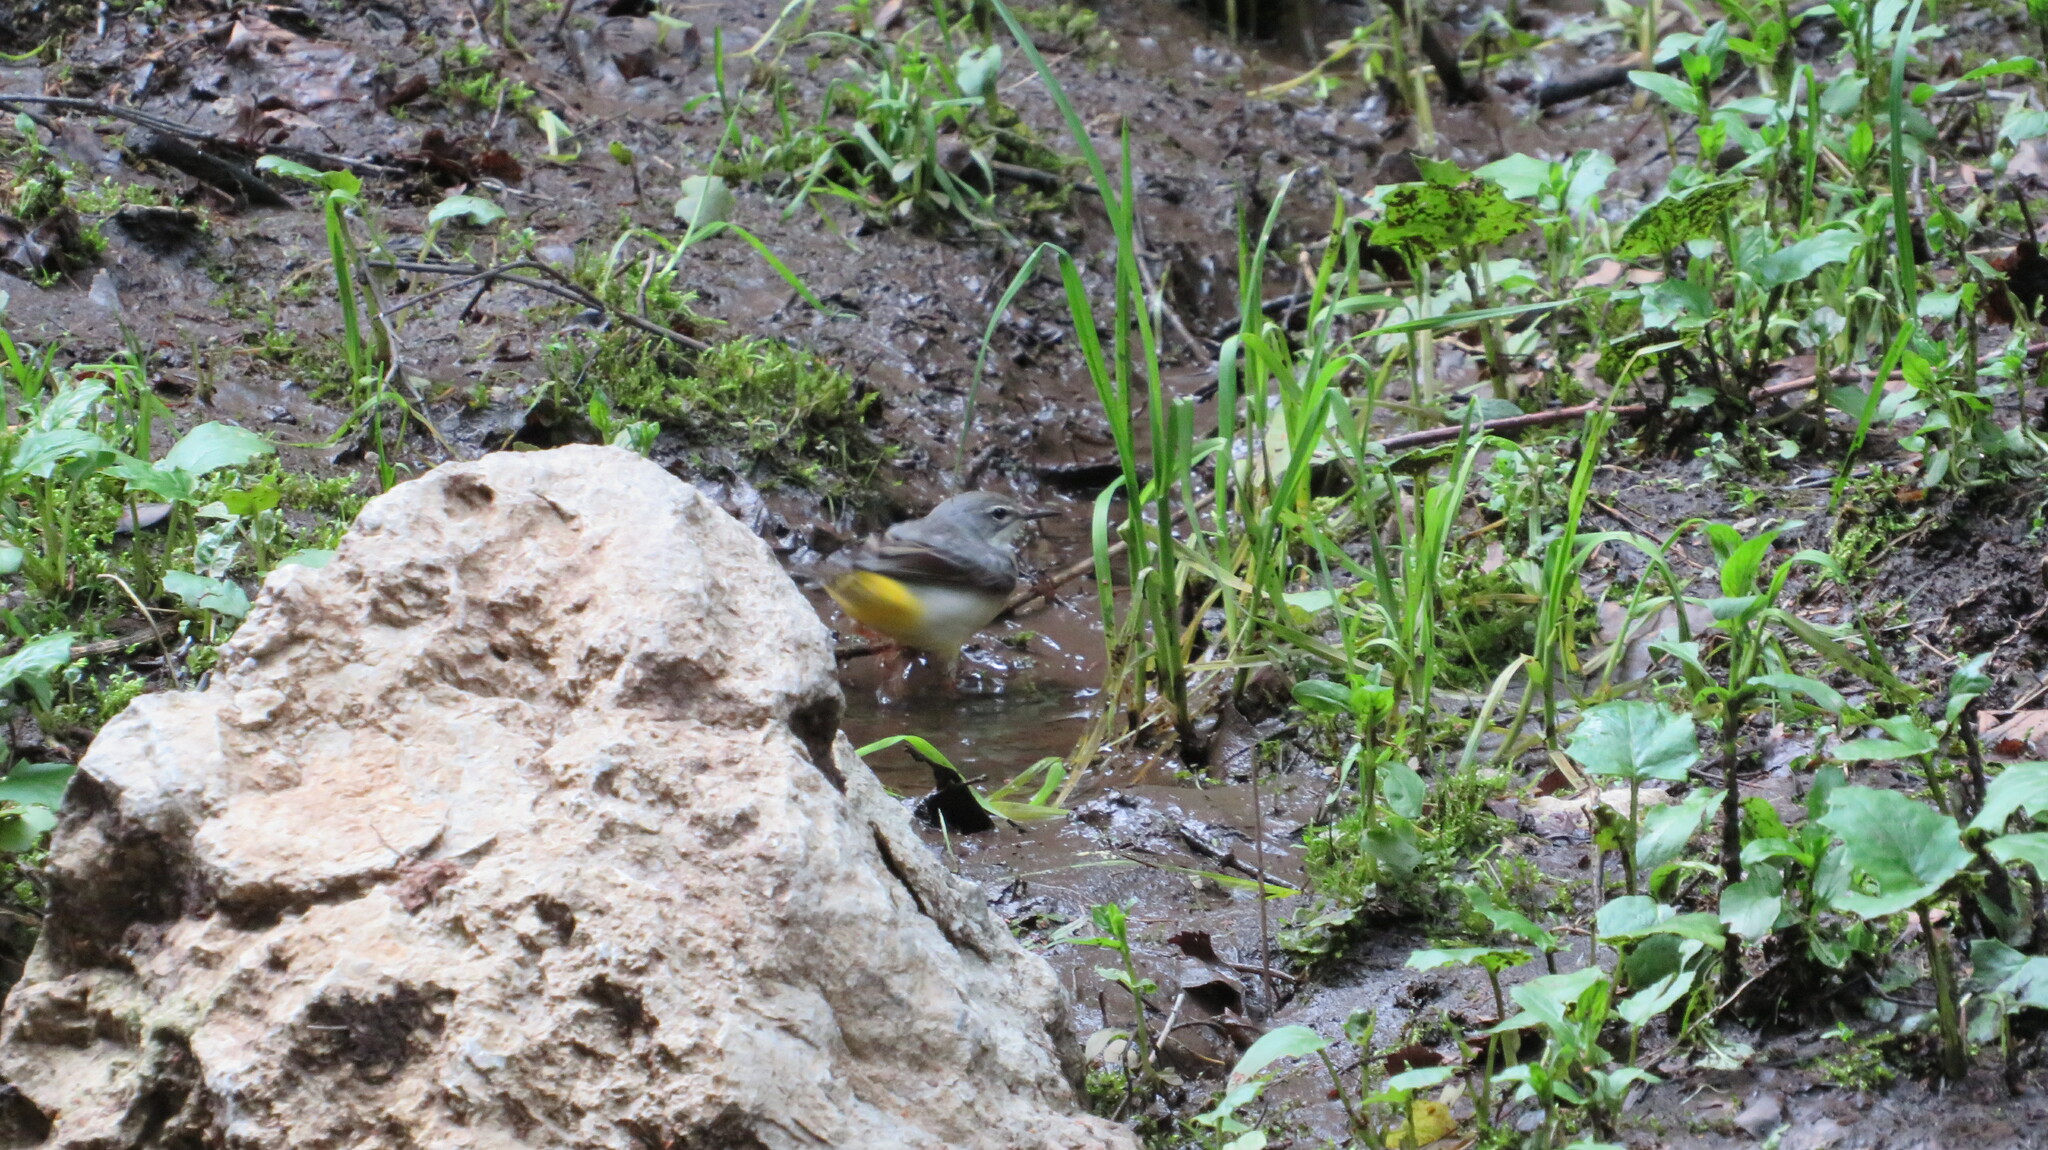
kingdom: Animalia
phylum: Chordata
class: Aves
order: Passeriformes
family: Motacillidae
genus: Motacilla
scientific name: Motacilla cinerea
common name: Grey wagtail
